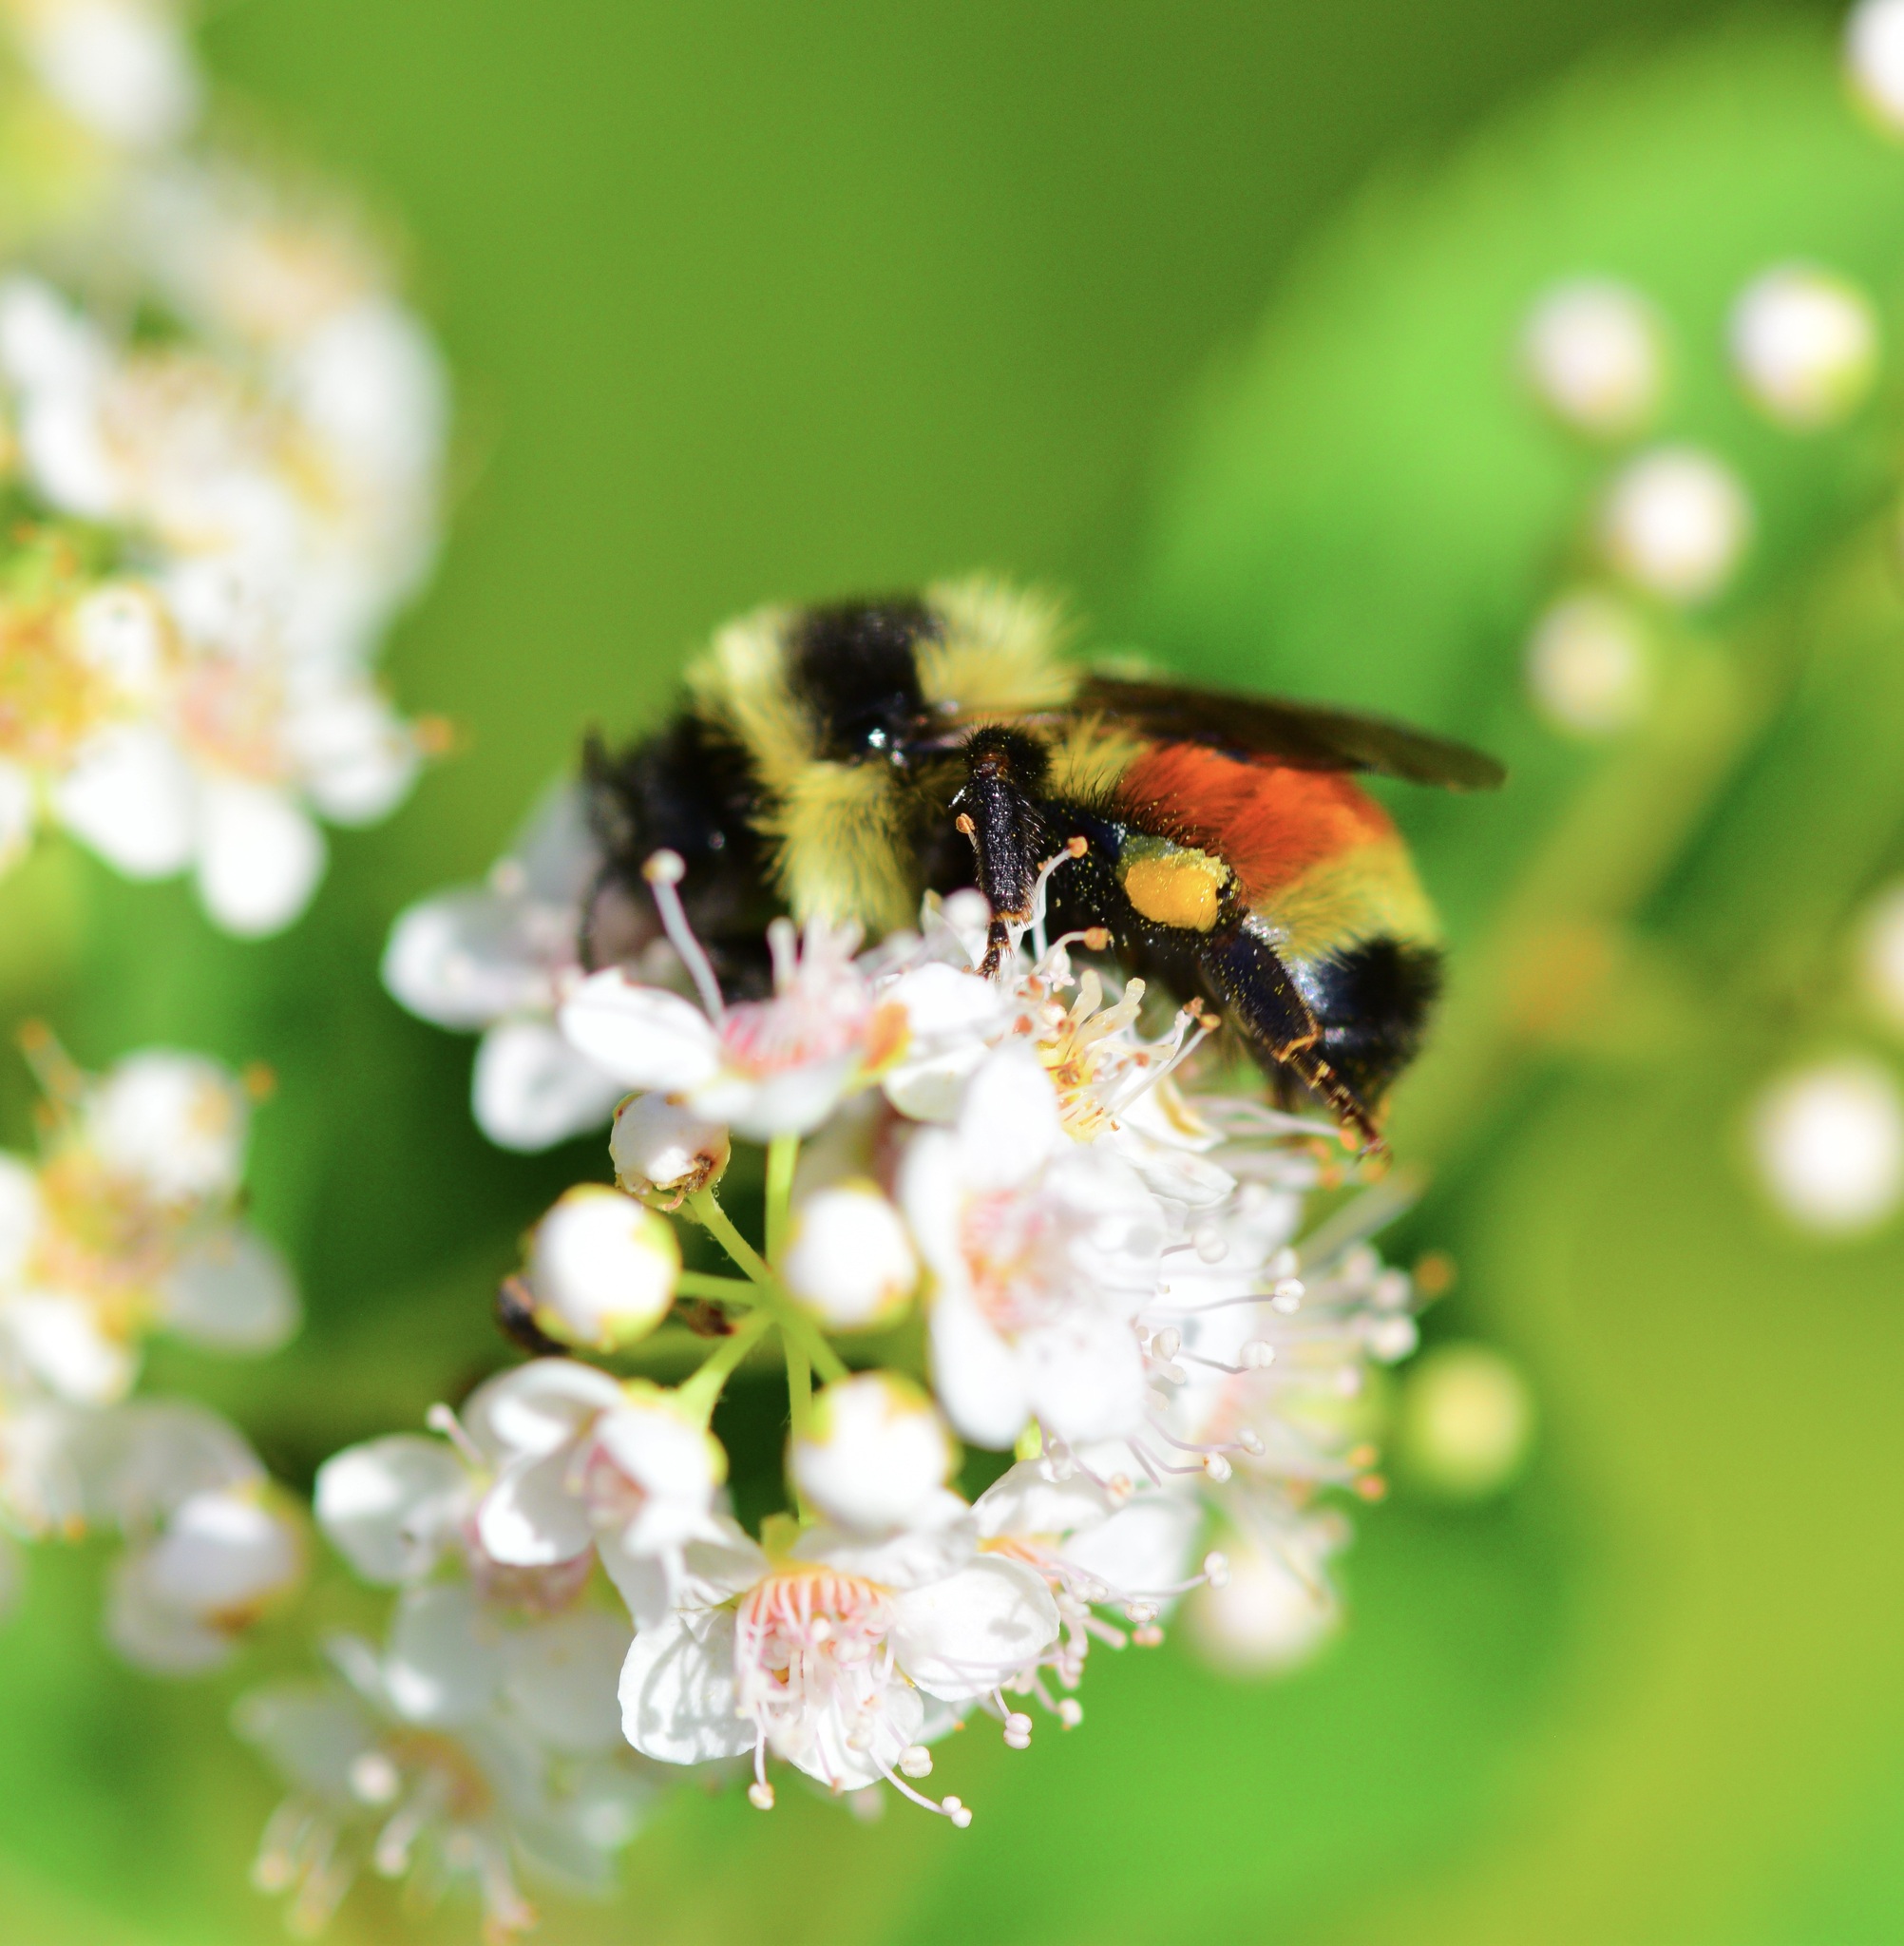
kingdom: Animalia
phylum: Arthropoda
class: Insecta
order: Hymenoptera
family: Apidae
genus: Bombus
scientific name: Bombus ternarius
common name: Tri-colored bumble bee
